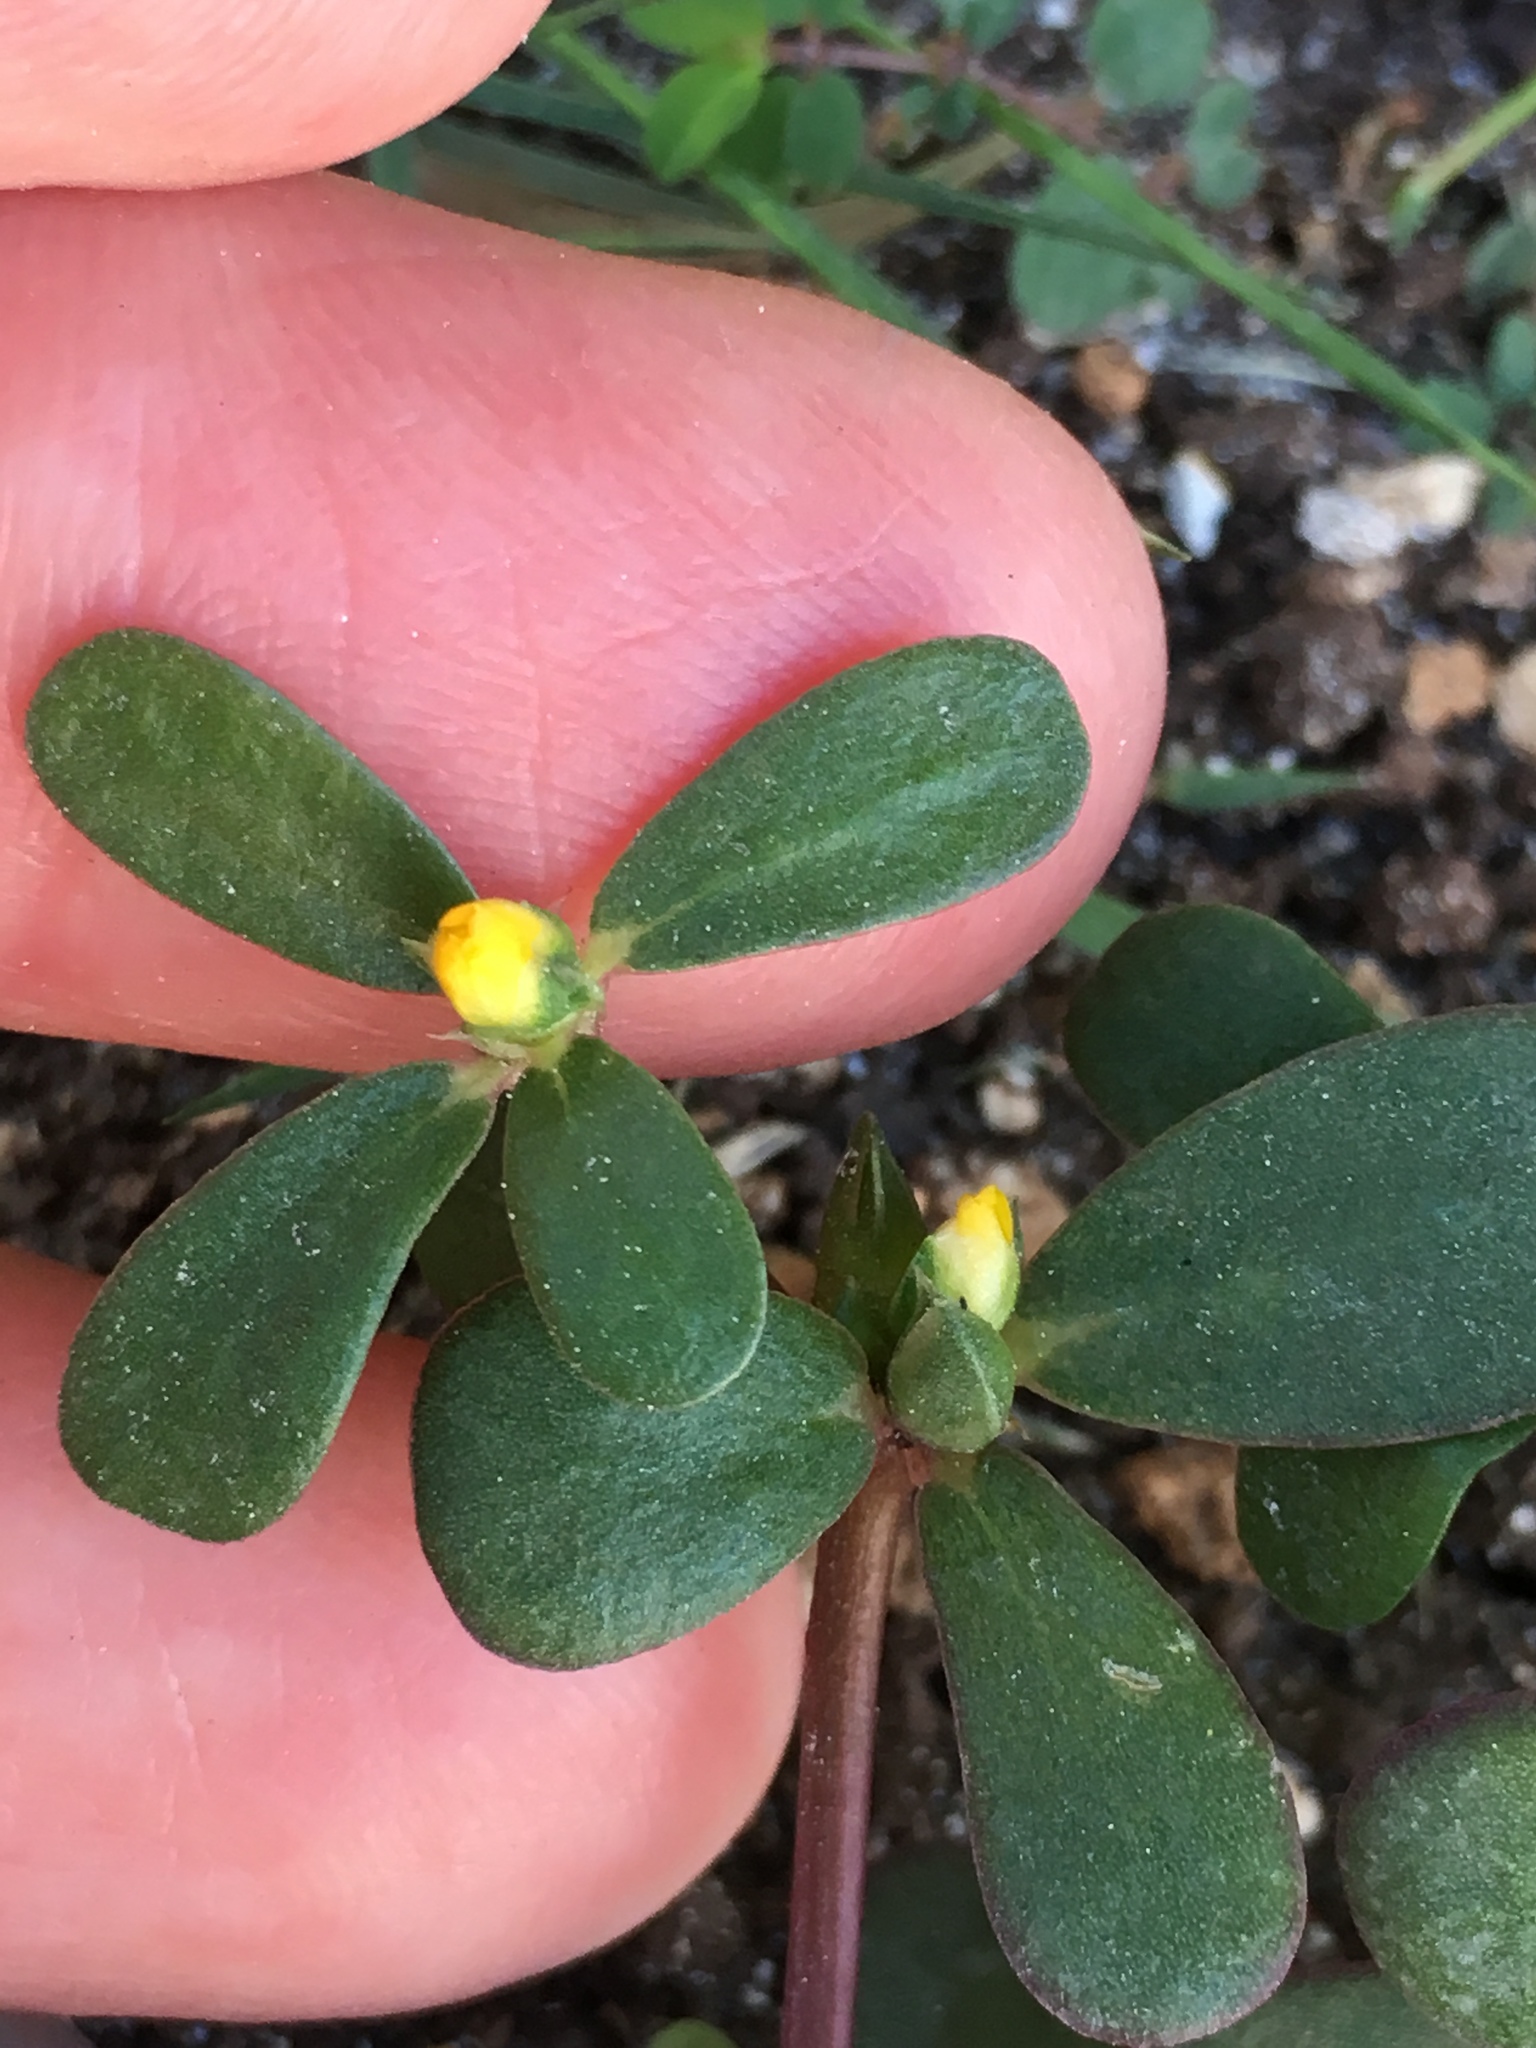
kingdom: Plantae
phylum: Tracheophyta
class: Magnoliopsida
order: Caryophyllales
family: Portulacaceae
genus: Portulaca
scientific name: Portulaca oleracea
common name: Common purslane
